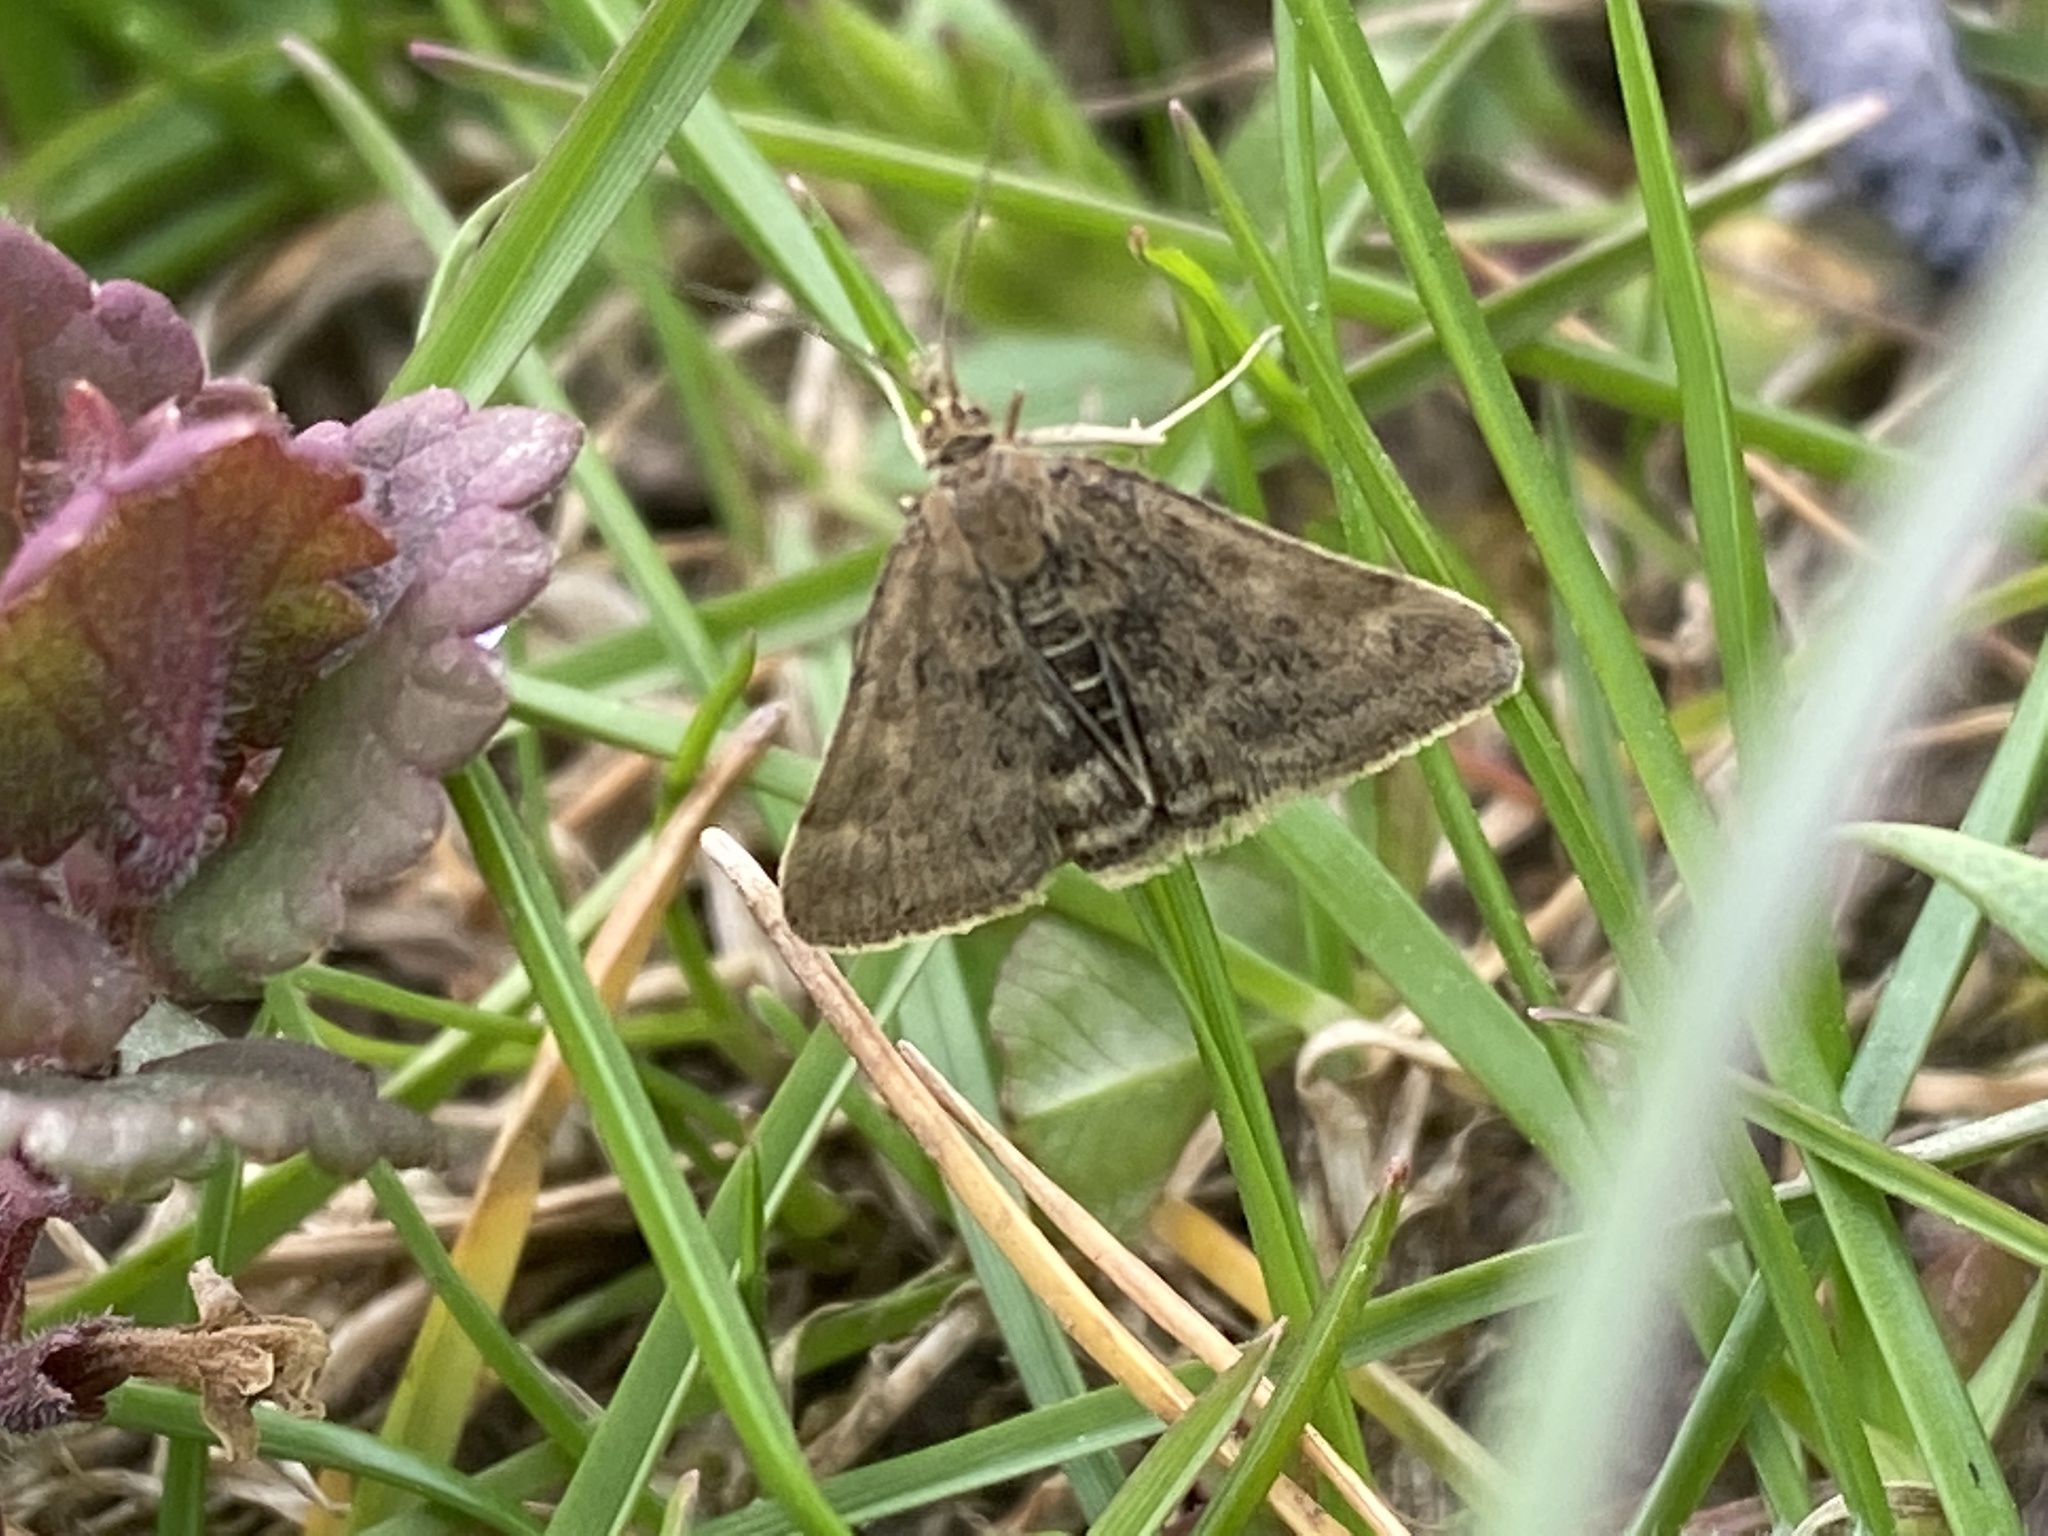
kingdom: Animalia
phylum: Arthropoda
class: Insecta
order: Lepidoptera
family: Crambidae
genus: Pyrausta
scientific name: Pyrausta despicata
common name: Straw-barred pearl
